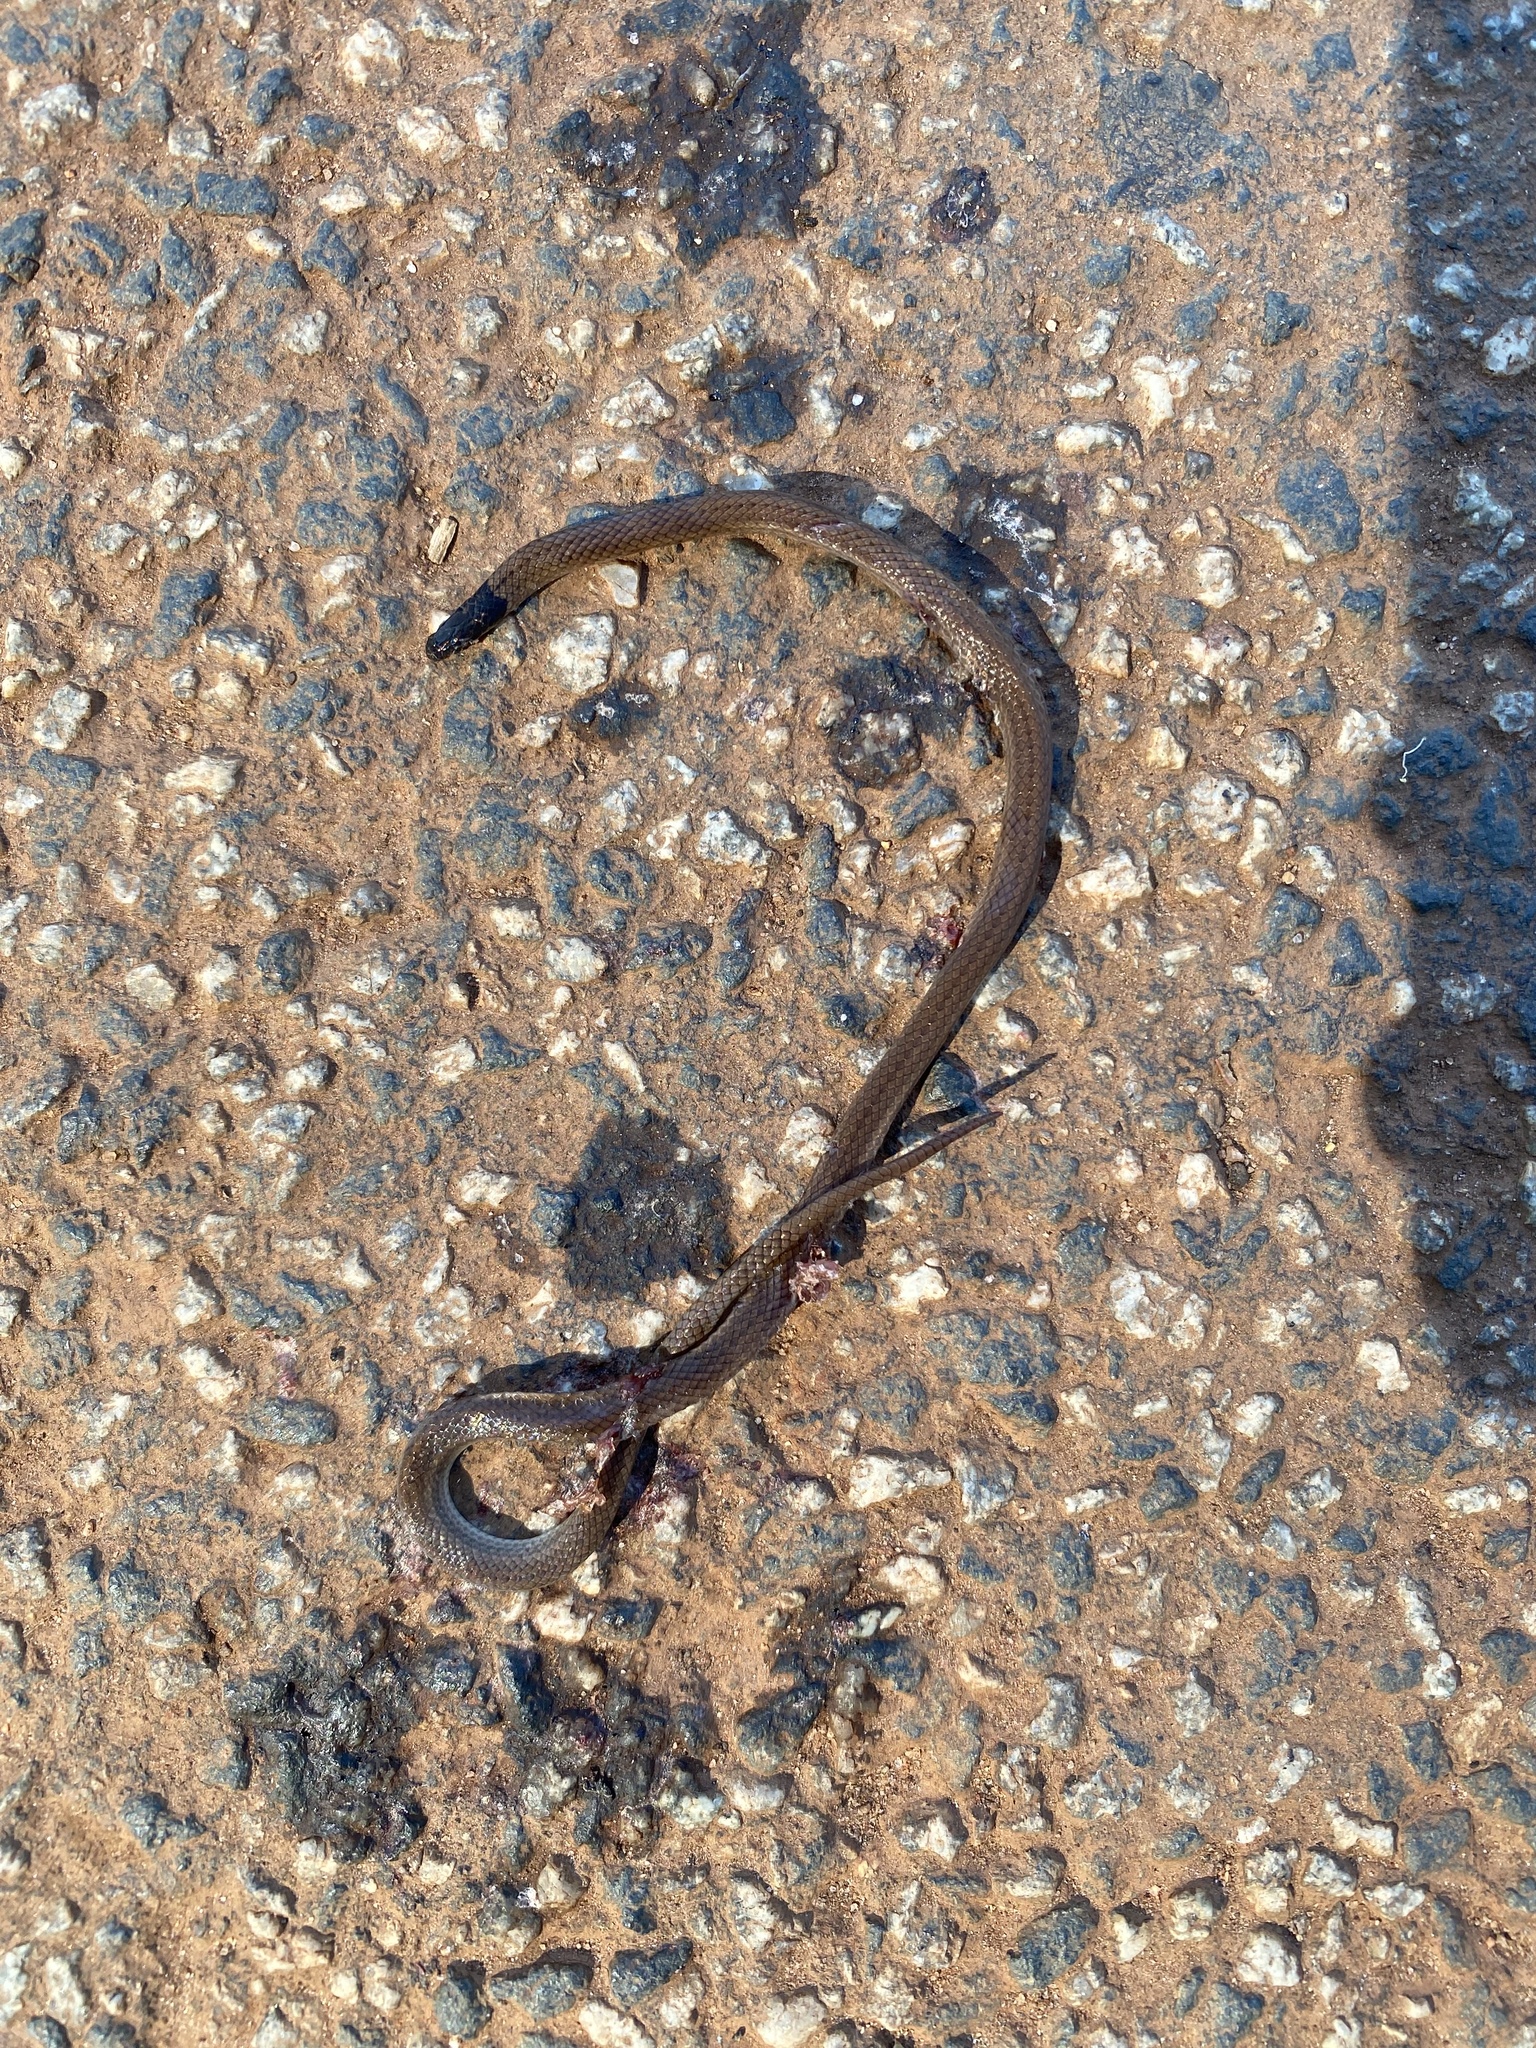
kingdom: Animalia
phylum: Chordata
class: Squamata
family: Atractaspididae
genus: Aparallactus
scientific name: Aparallactus capensis
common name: Cape centipede eater
